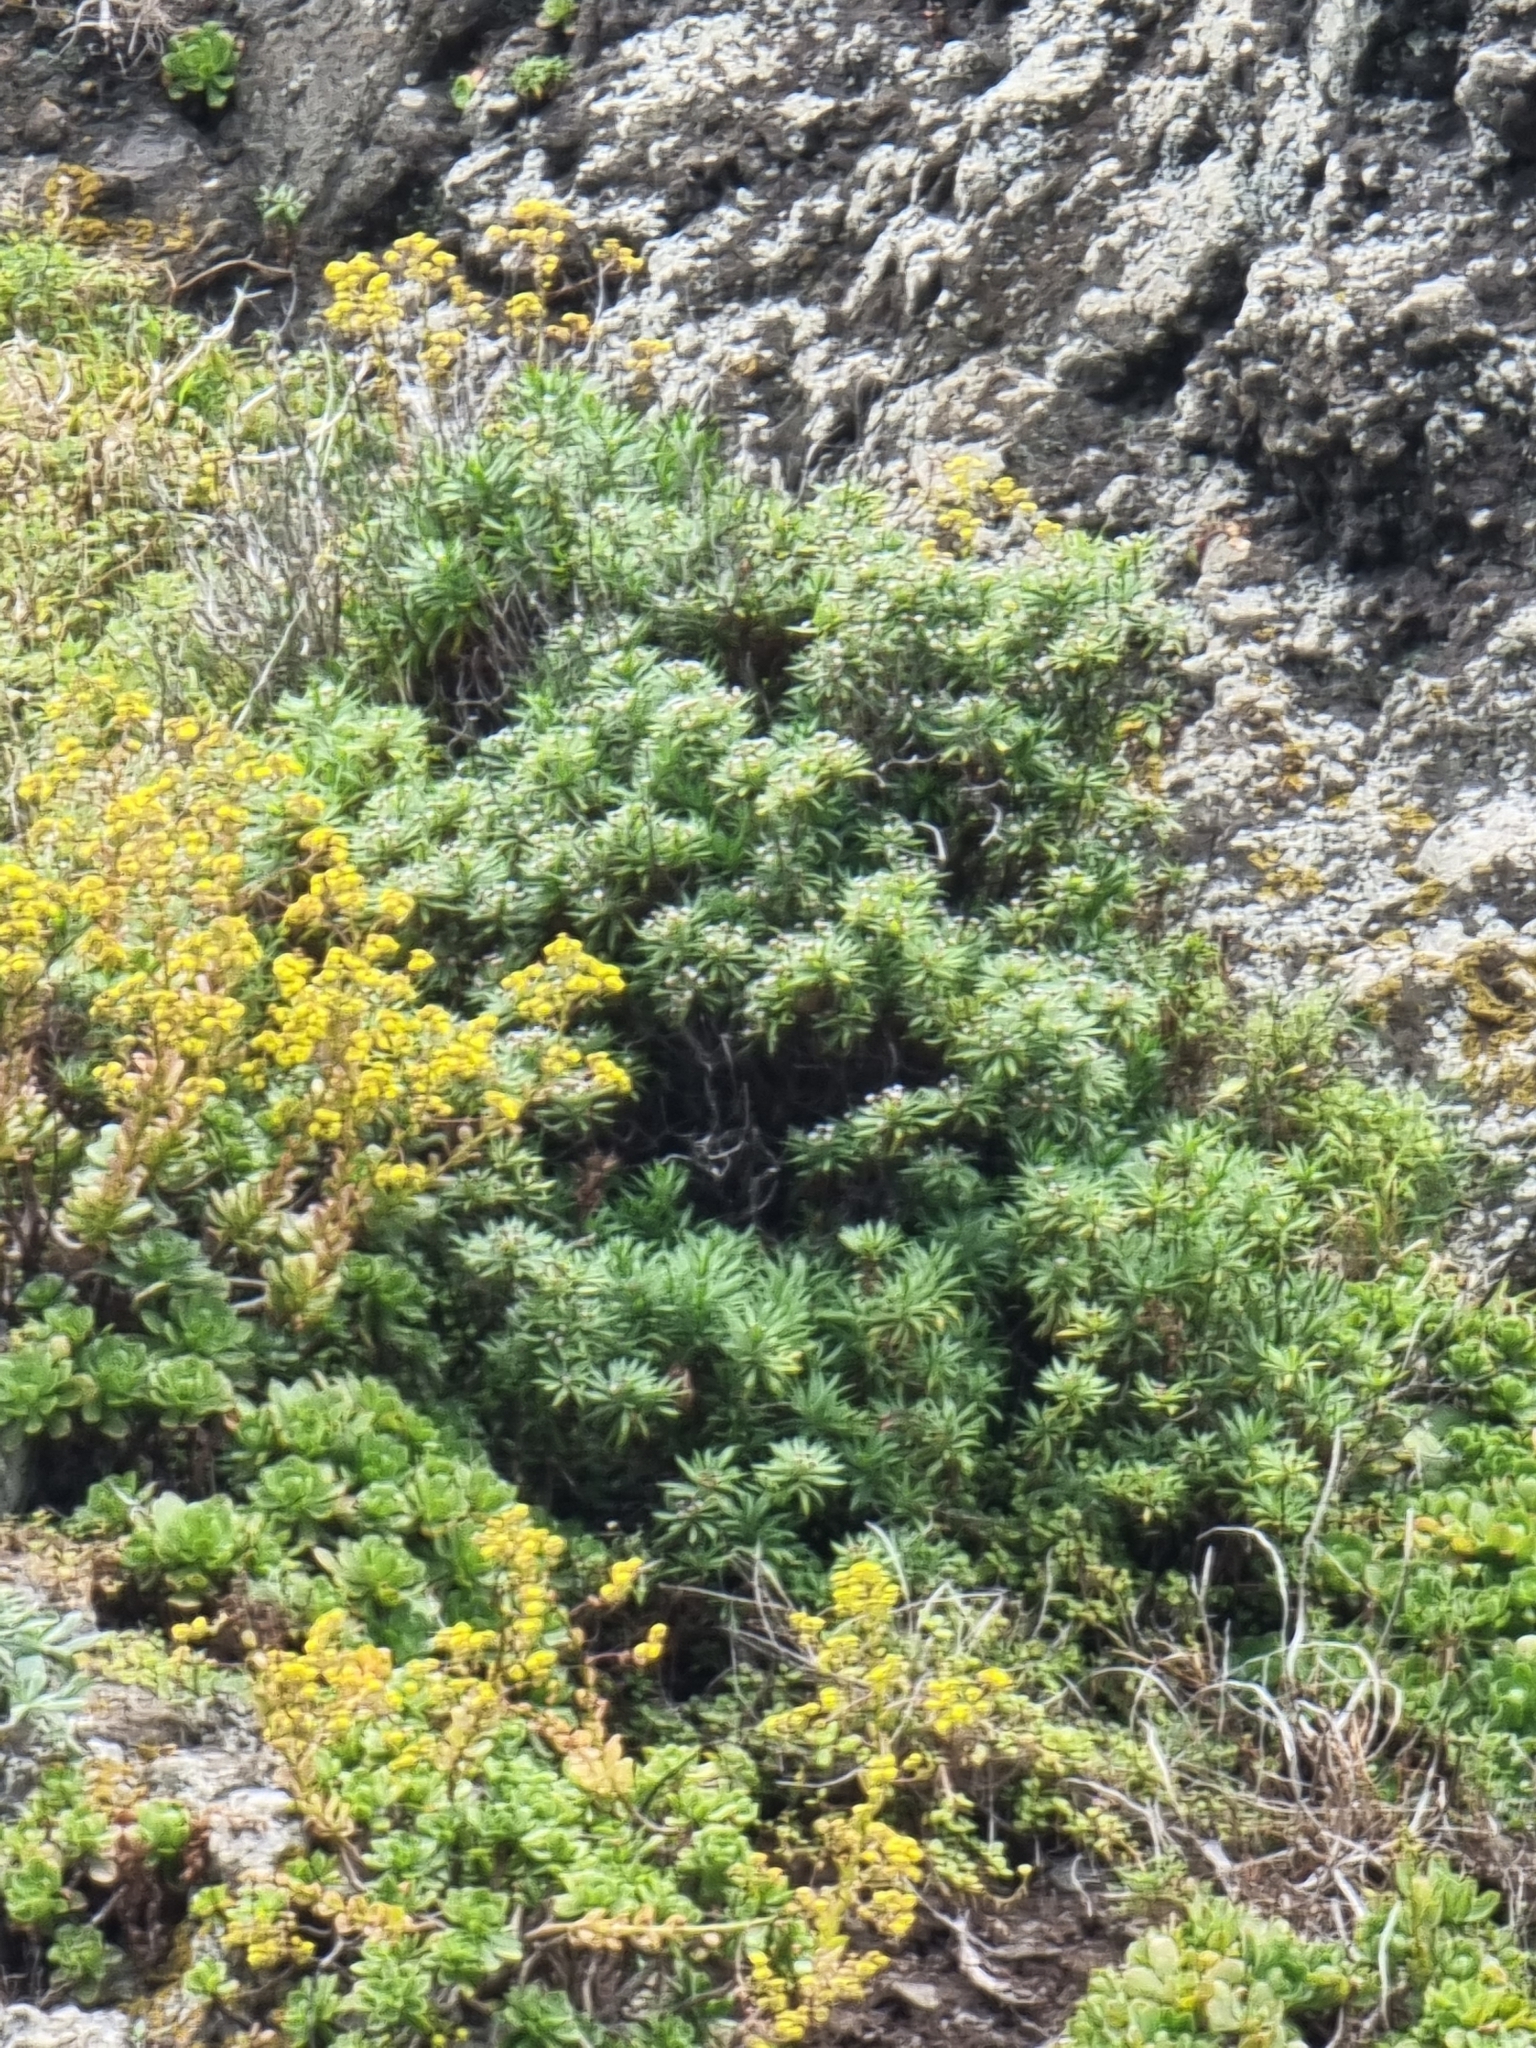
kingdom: Plantae
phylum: Tracheophyta
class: Magnoliopsida
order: Lamiales
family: Plantaginaceae
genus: Globularia
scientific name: Globularia salicina
